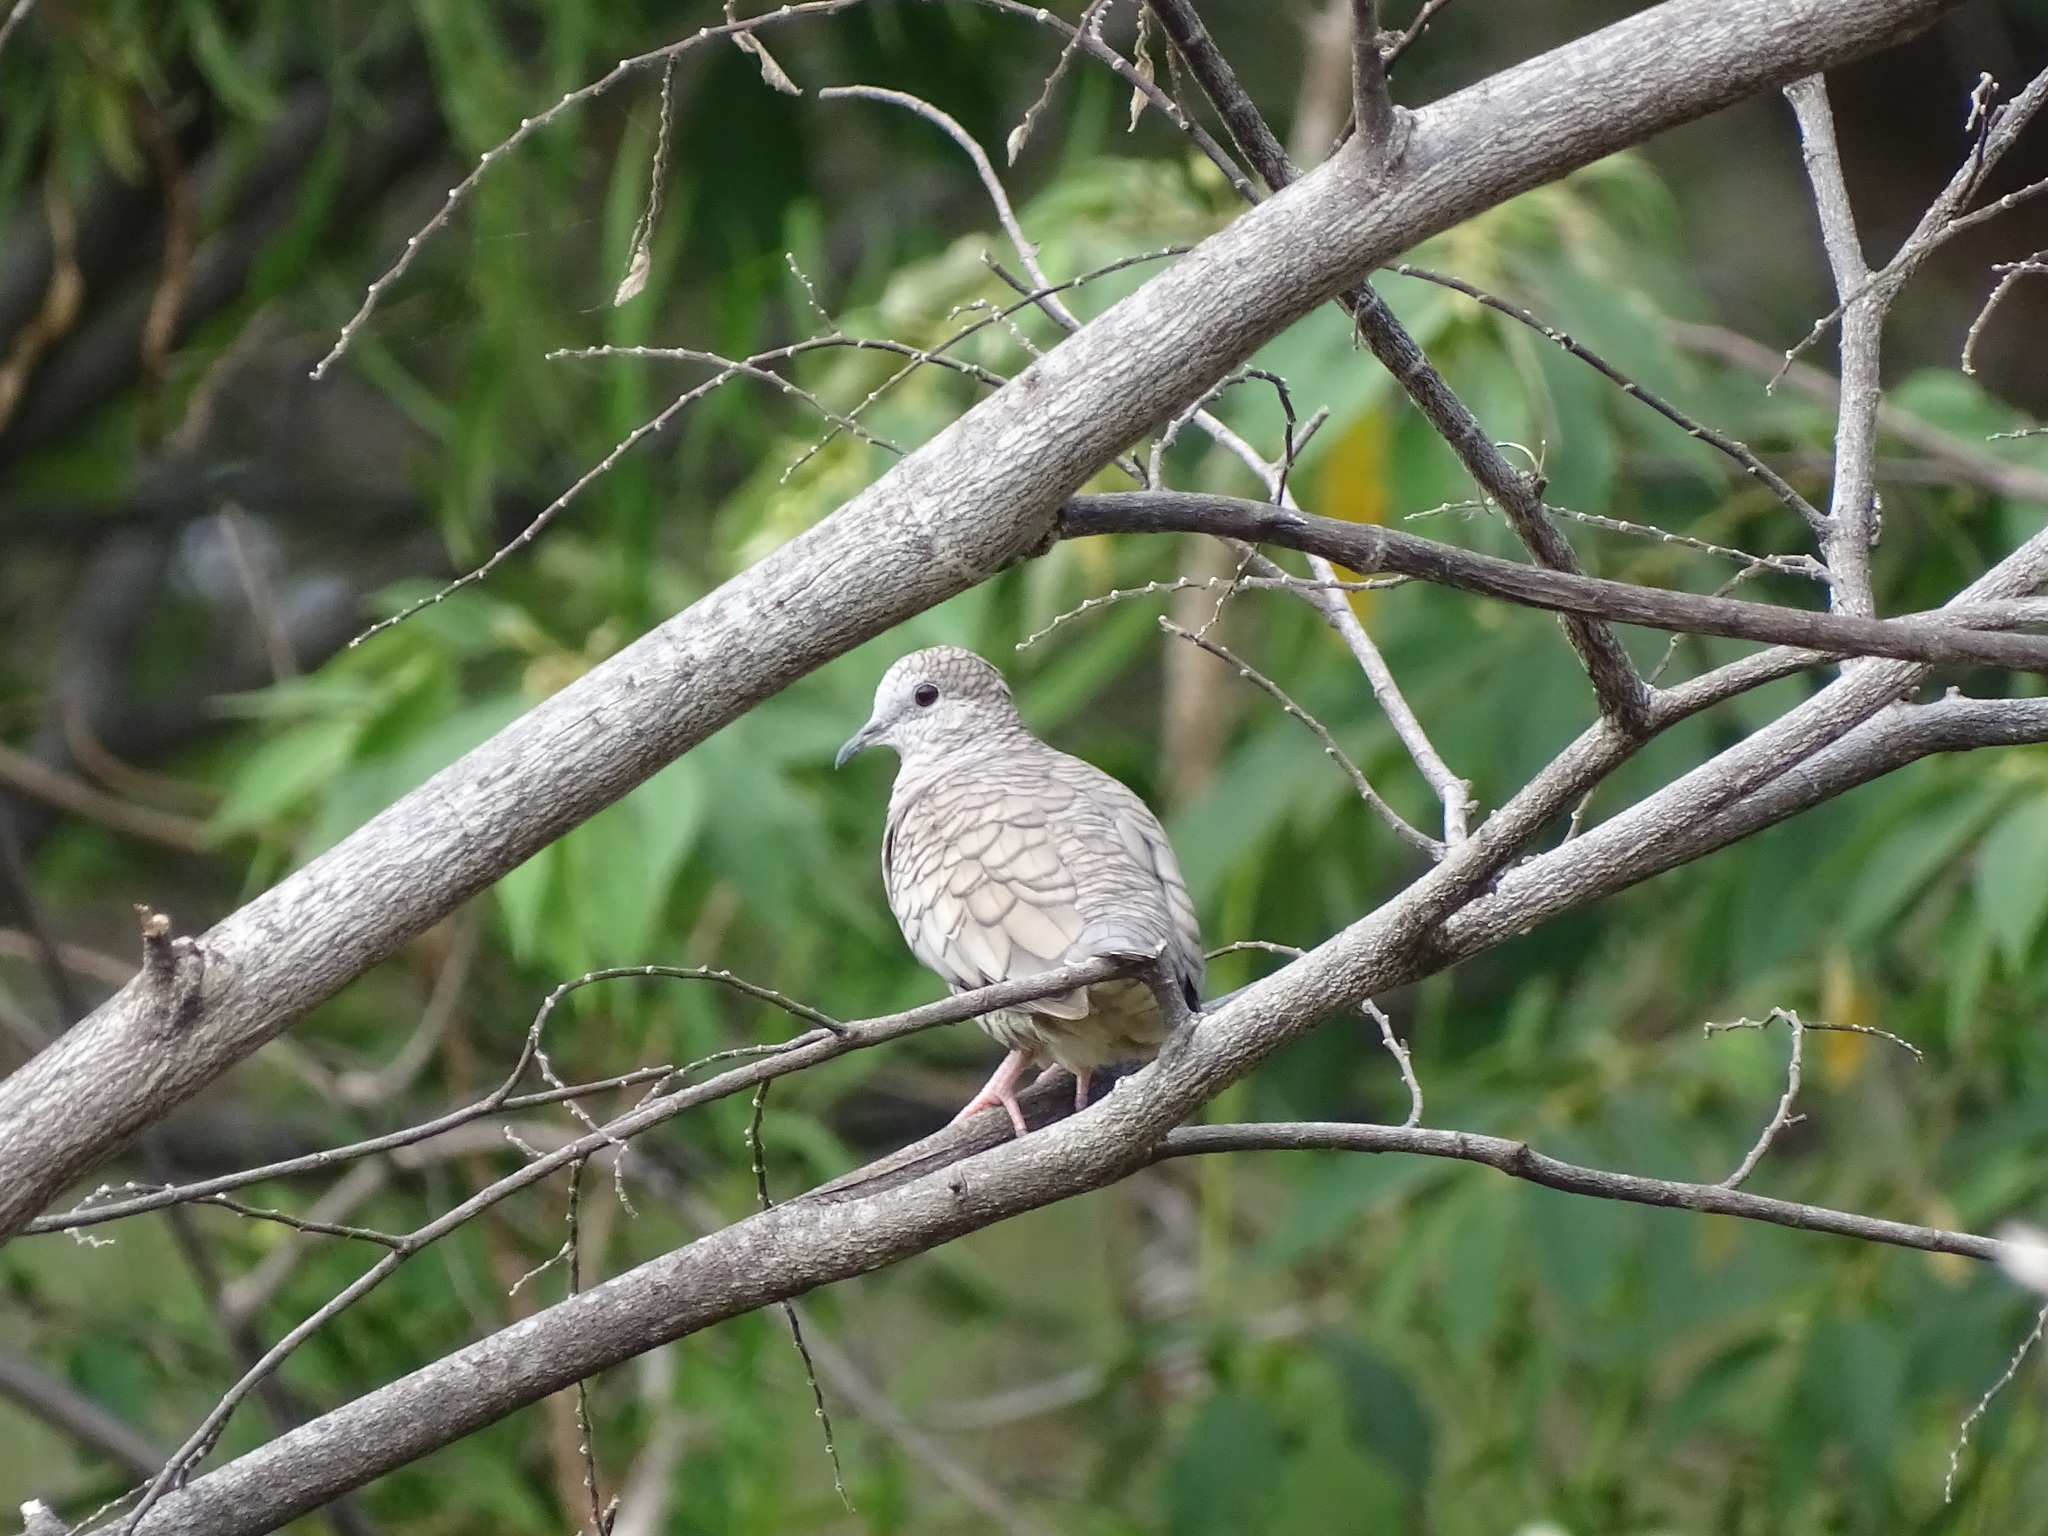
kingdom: Animalia
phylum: Chordata
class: Aves
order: Columbiformes
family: Columbidae
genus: Columbina
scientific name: Columbina inca
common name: Inca dove
